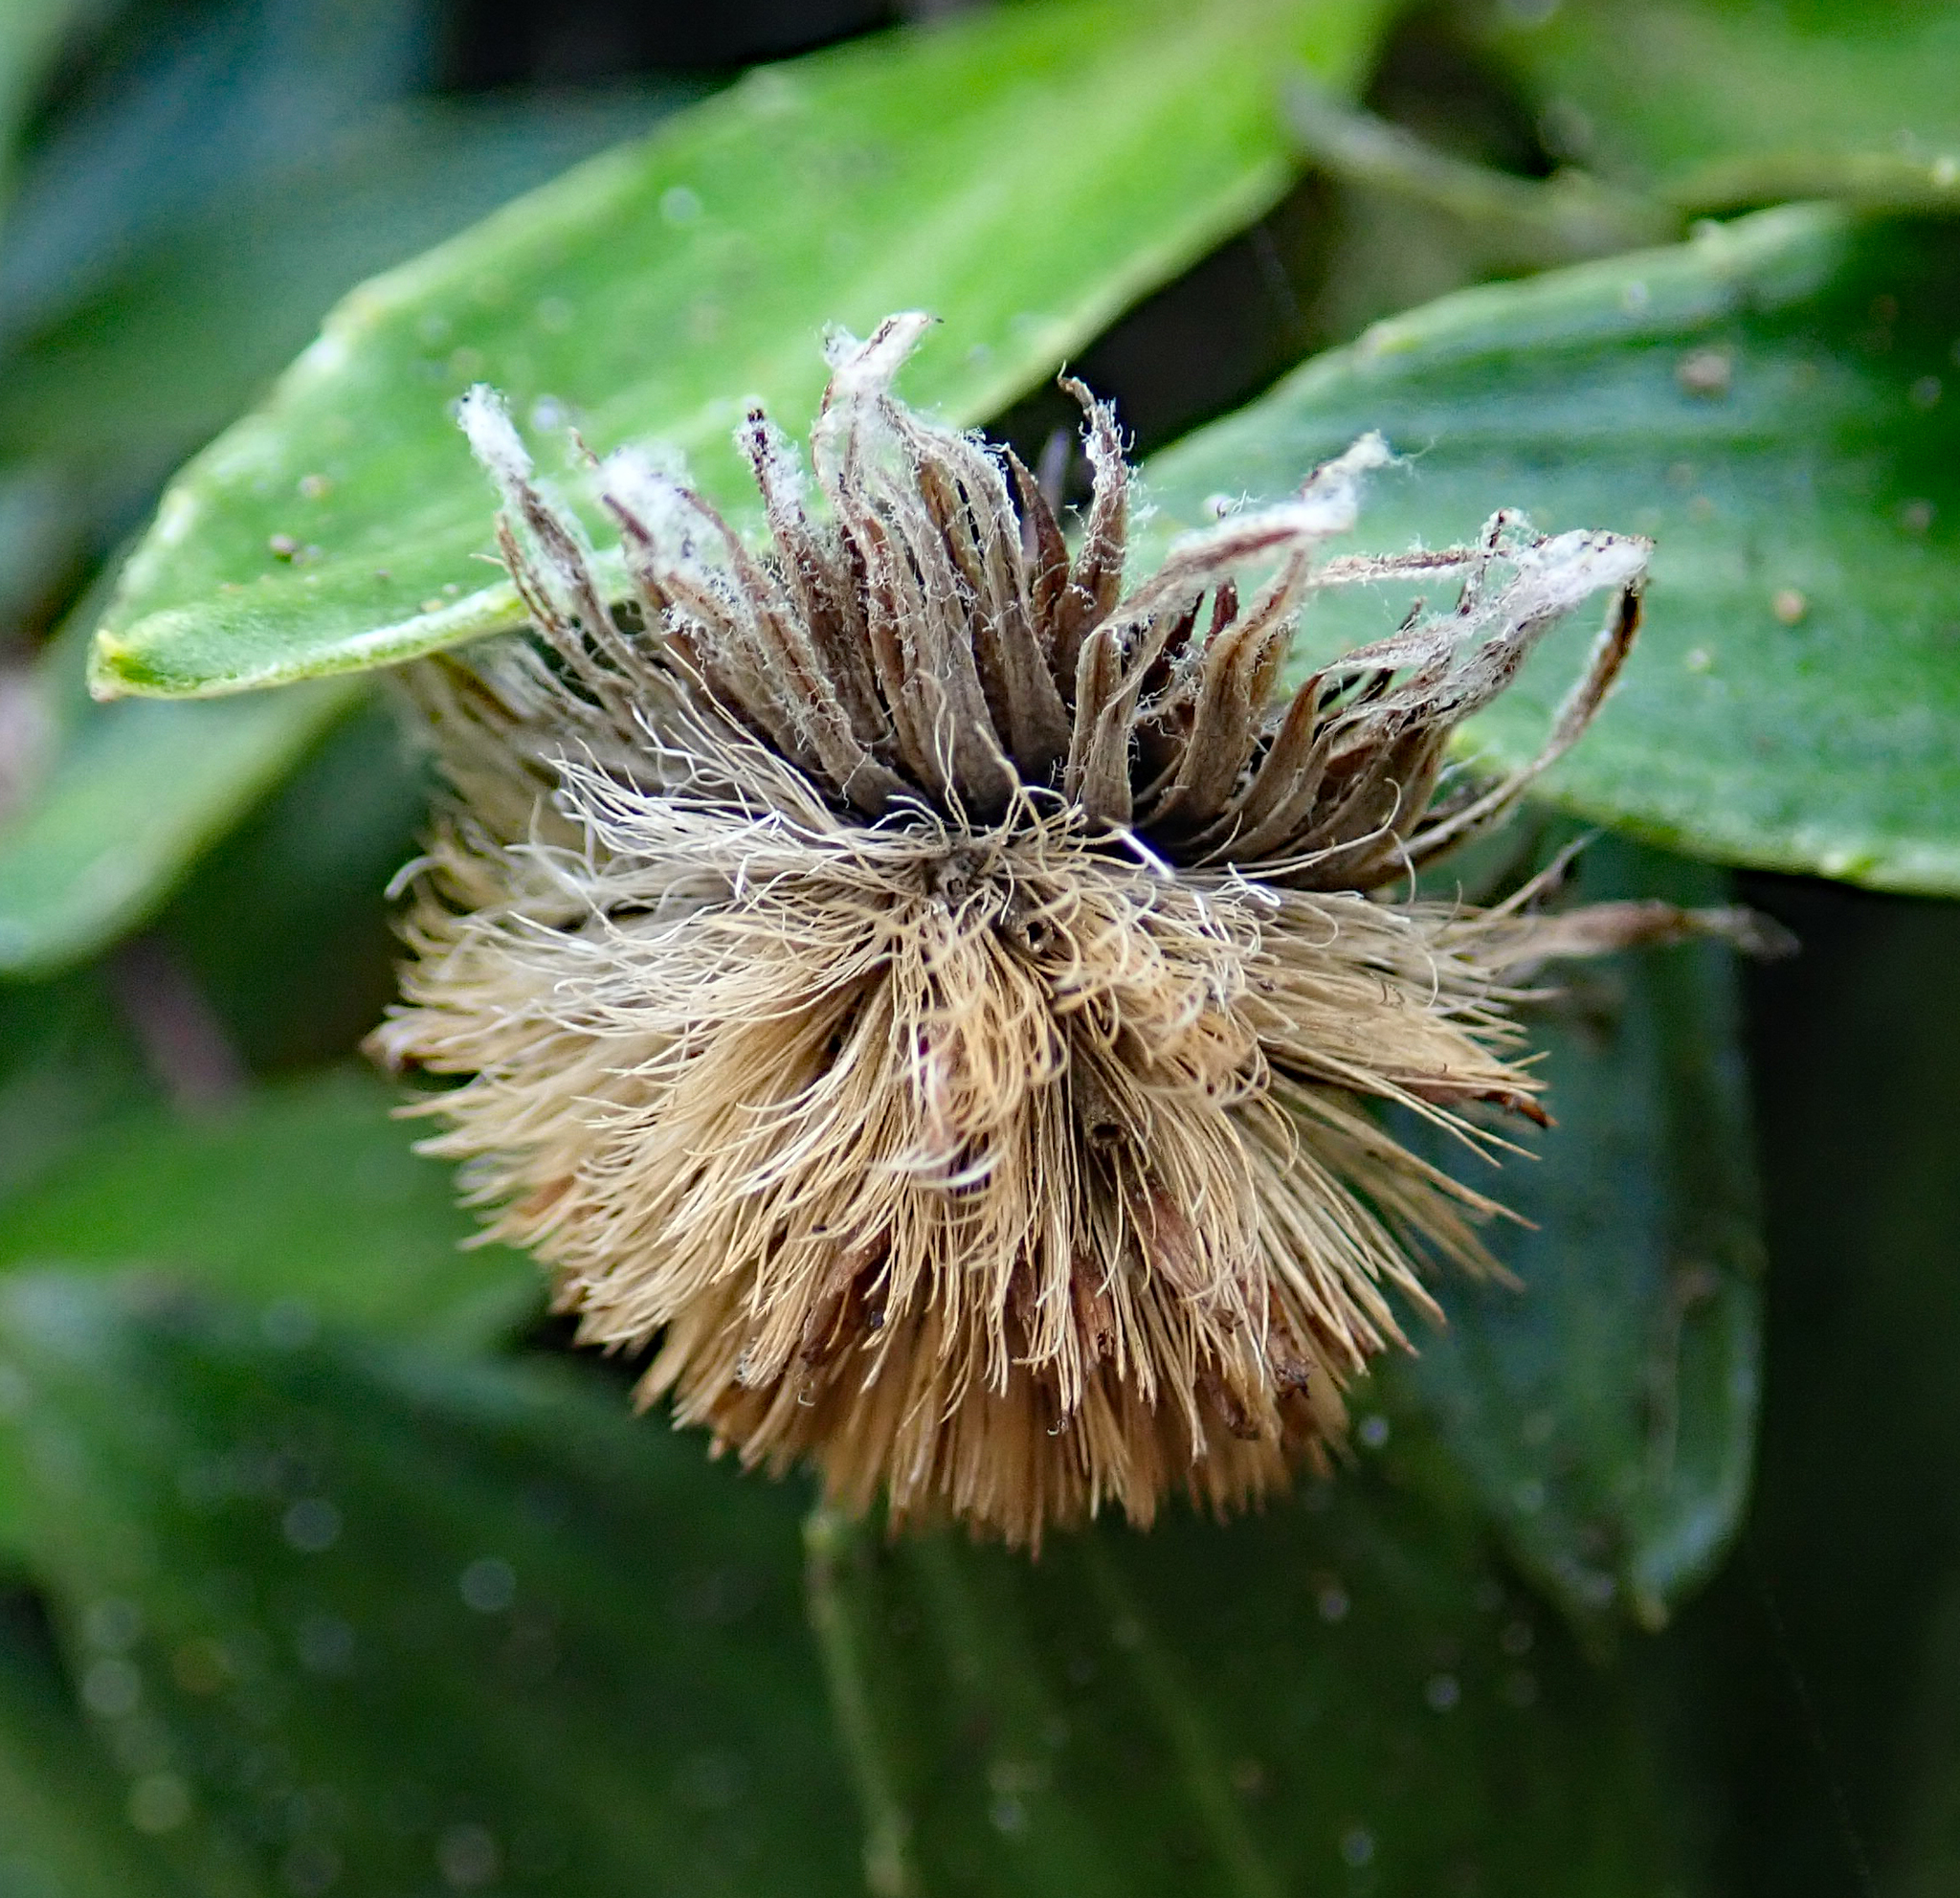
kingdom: Plantae
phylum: Tracheophyta
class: Magnoliopsida
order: Asterales
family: Asteraceae
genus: Celmisia
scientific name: Celmisia lindsayi
